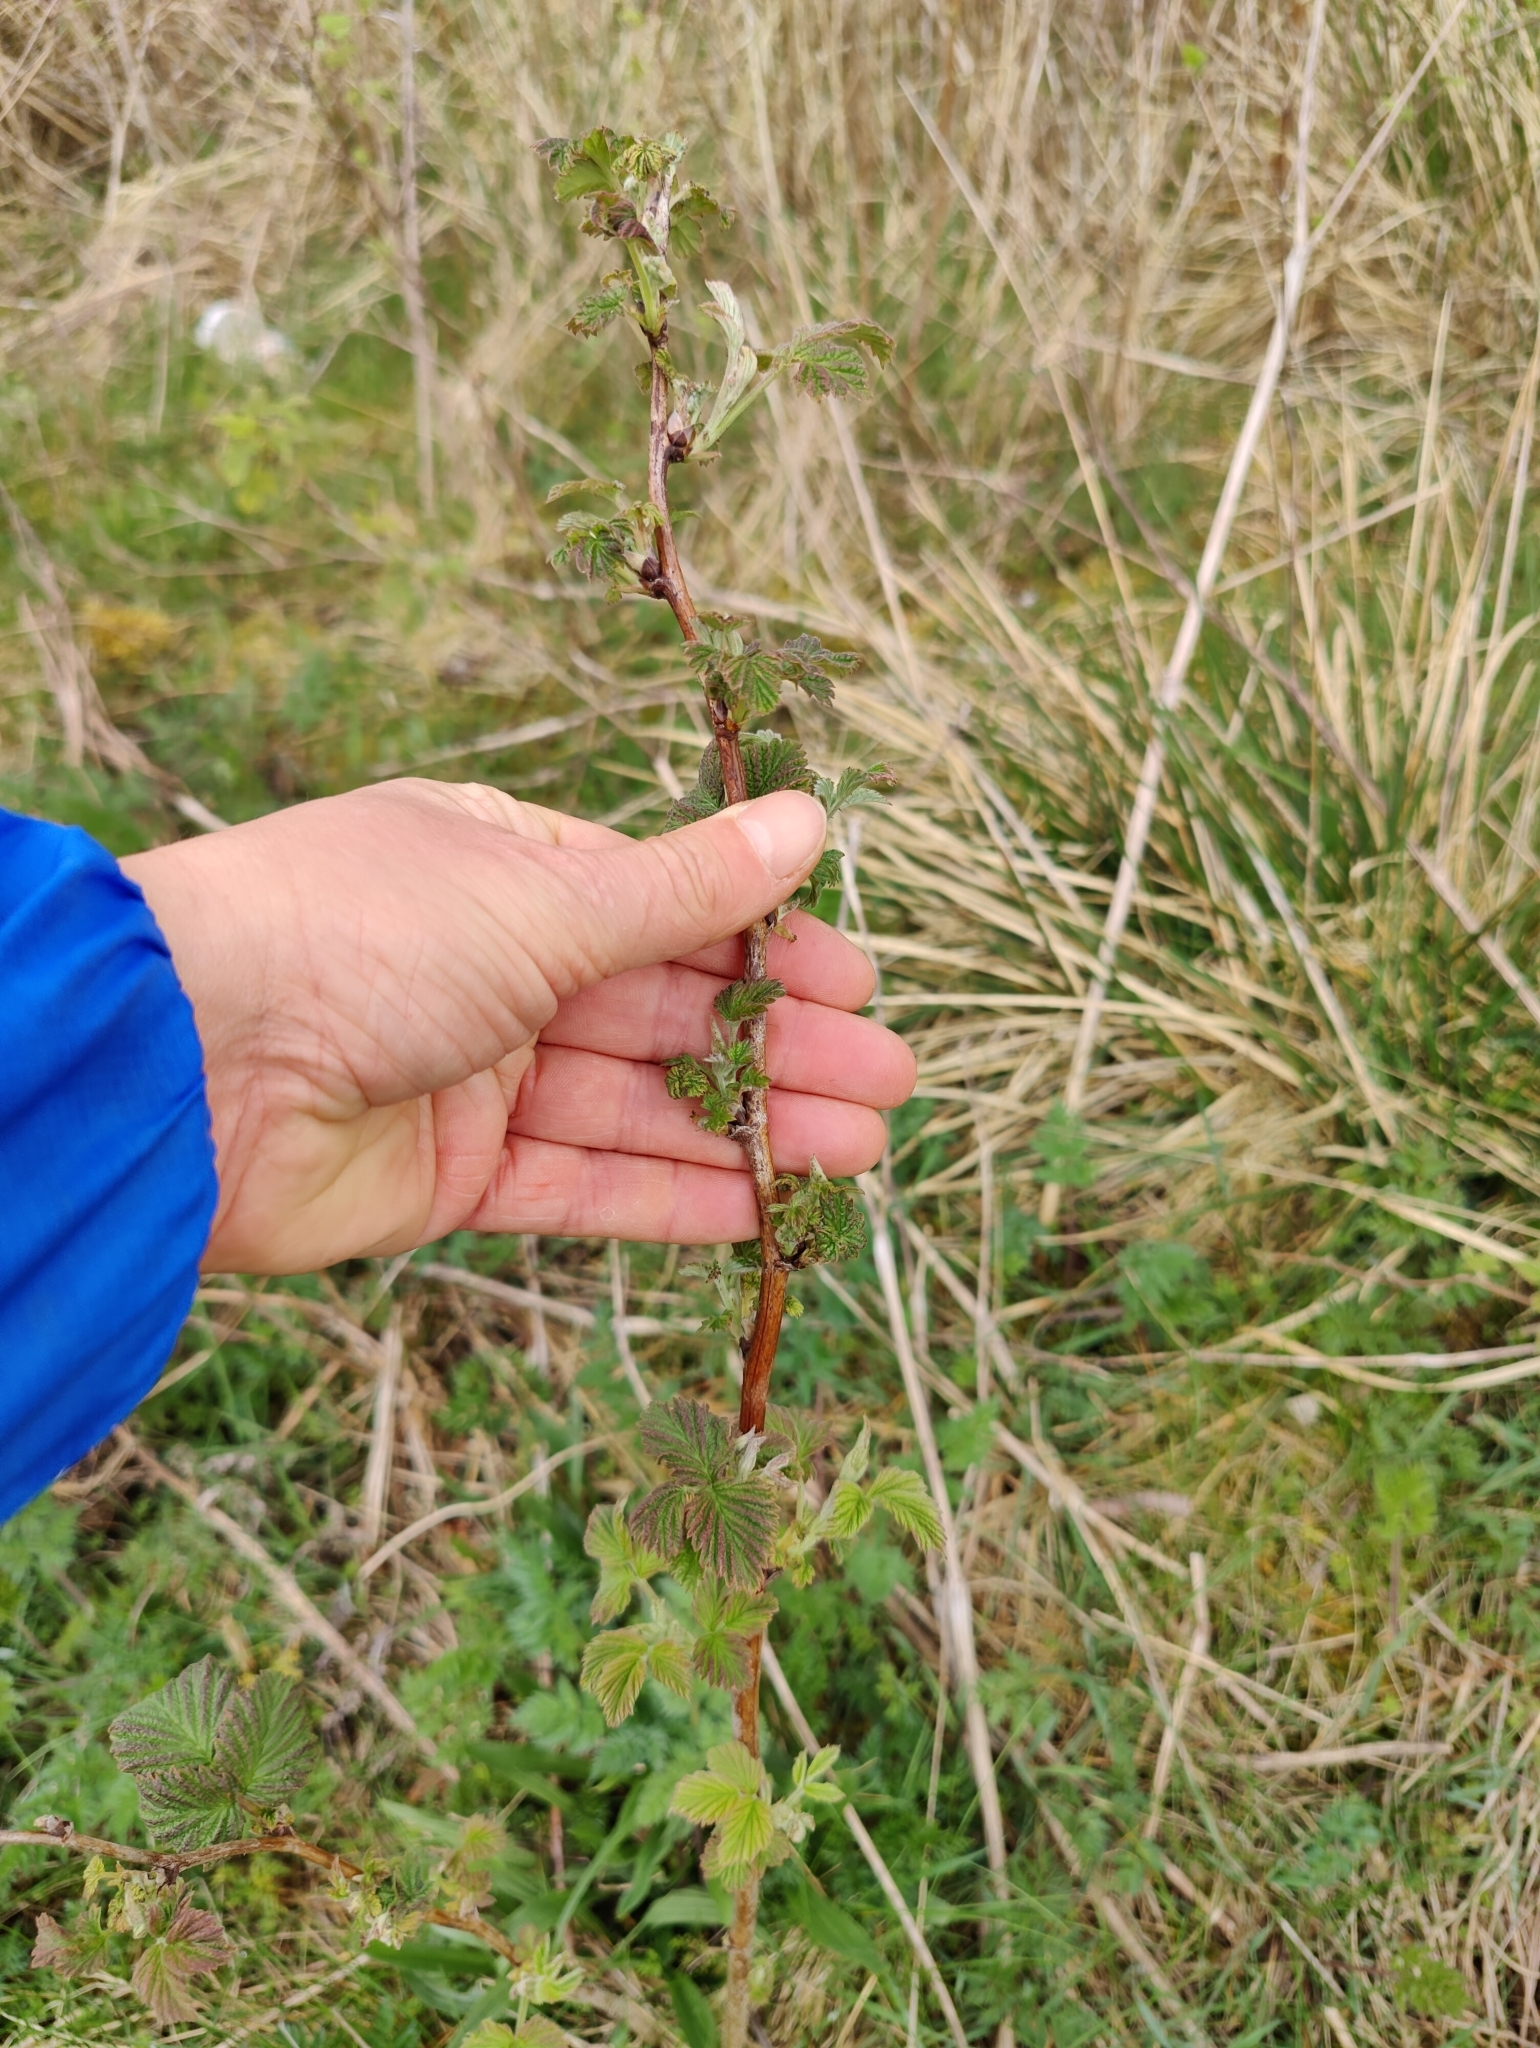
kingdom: Plantae
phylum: Tracheophyta
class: Magnoliopsida
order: Rosales
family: Rosaceae
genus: Rubus
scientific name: Rubus idaeus
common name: Raspberry
